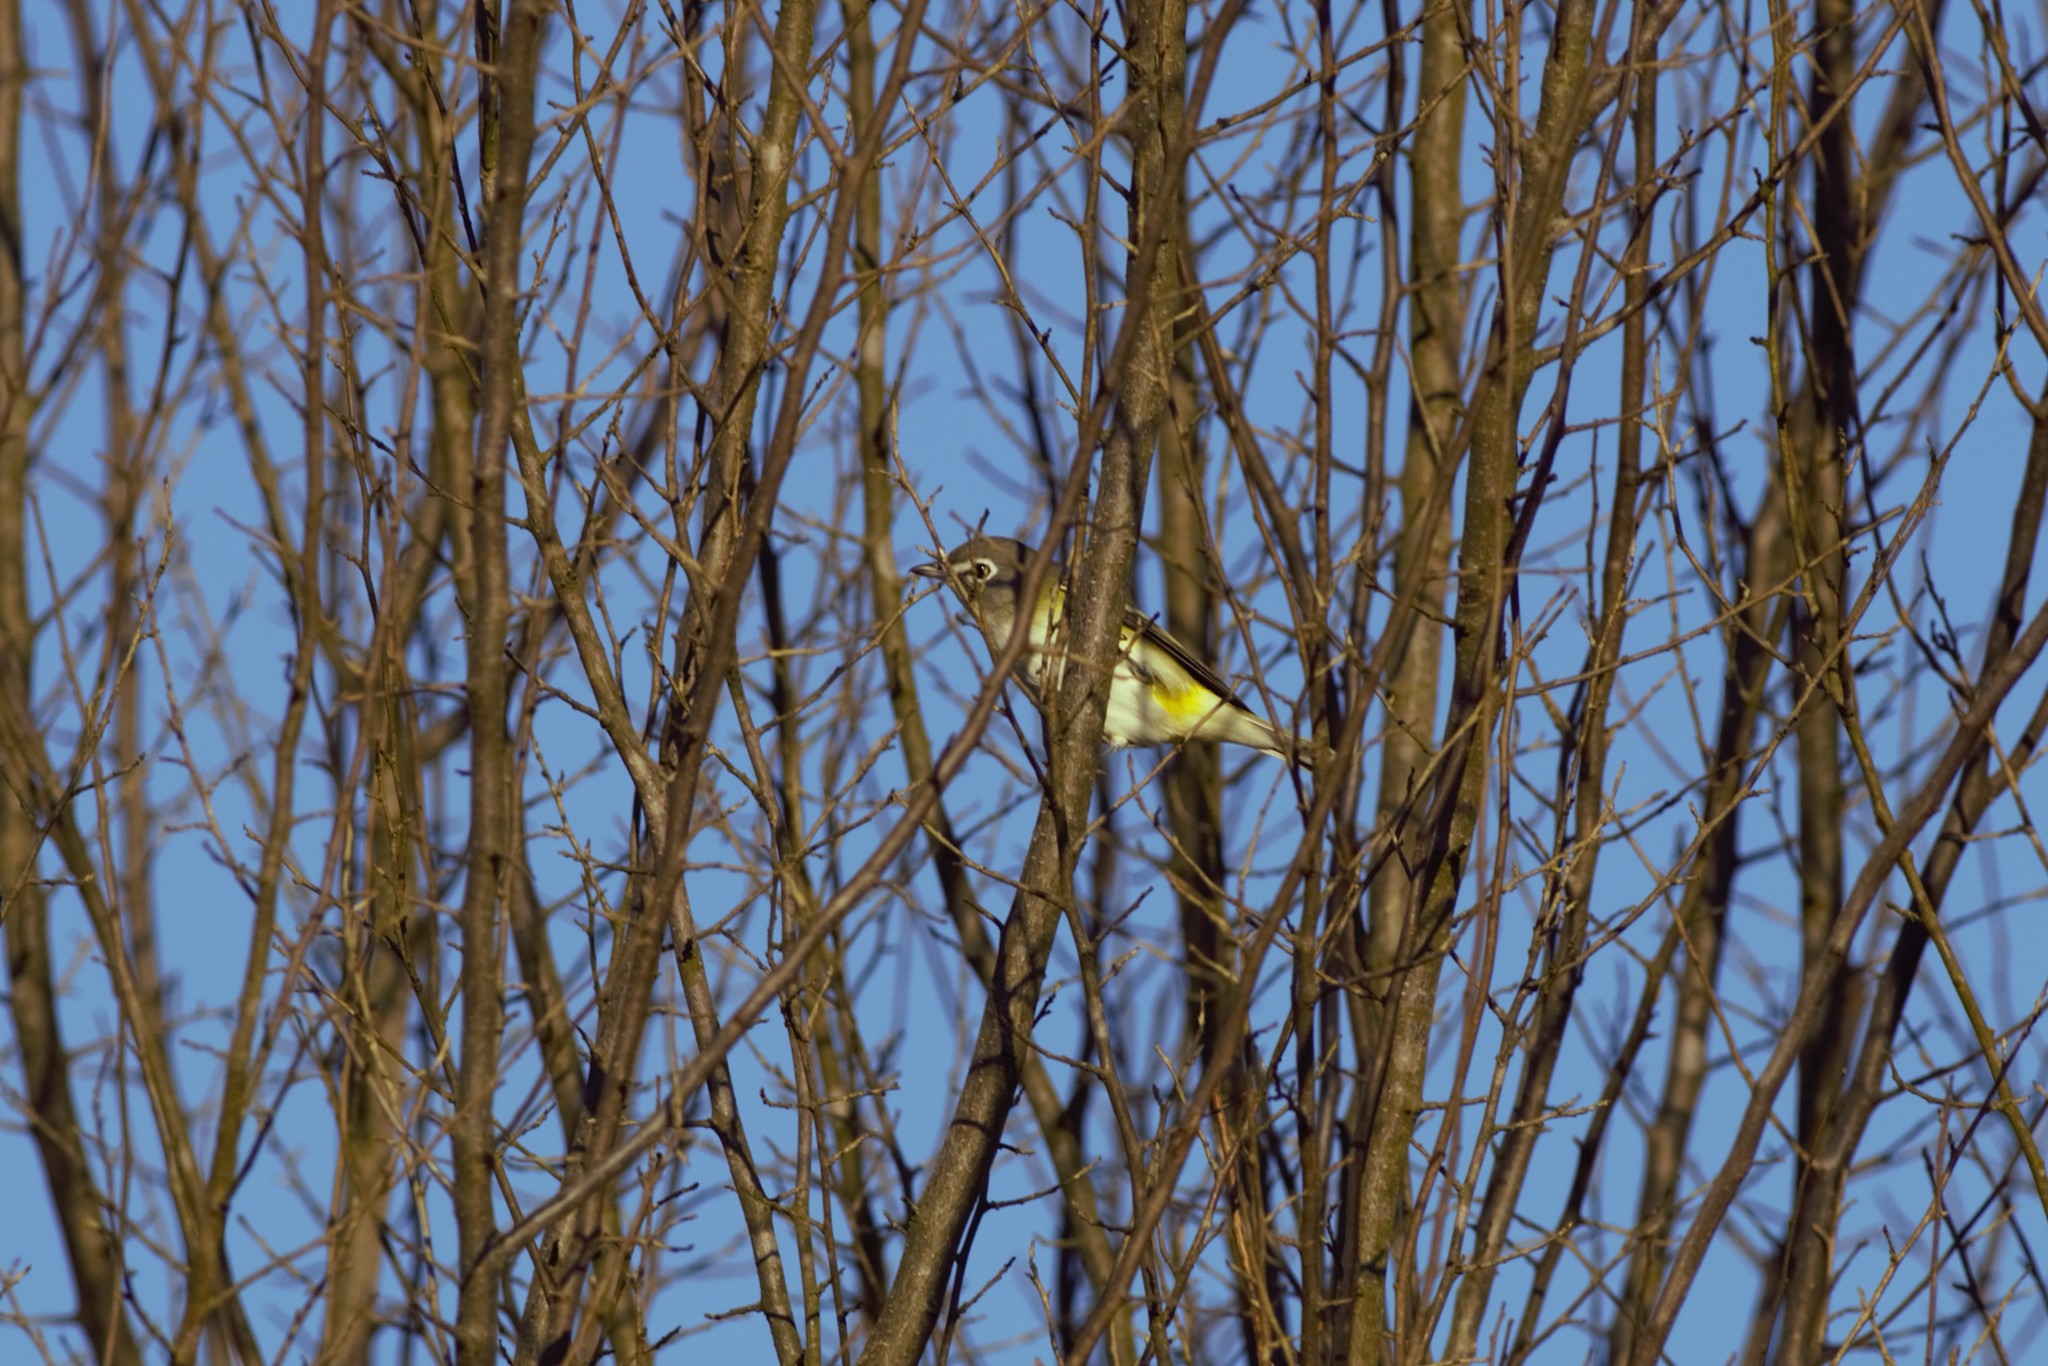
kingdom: Animalia
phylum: Chordata
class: Aves
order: Passeriformes
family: Vireonidae
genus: Vireo
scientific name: Vireo solitarius
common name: Blue-headed vireo
